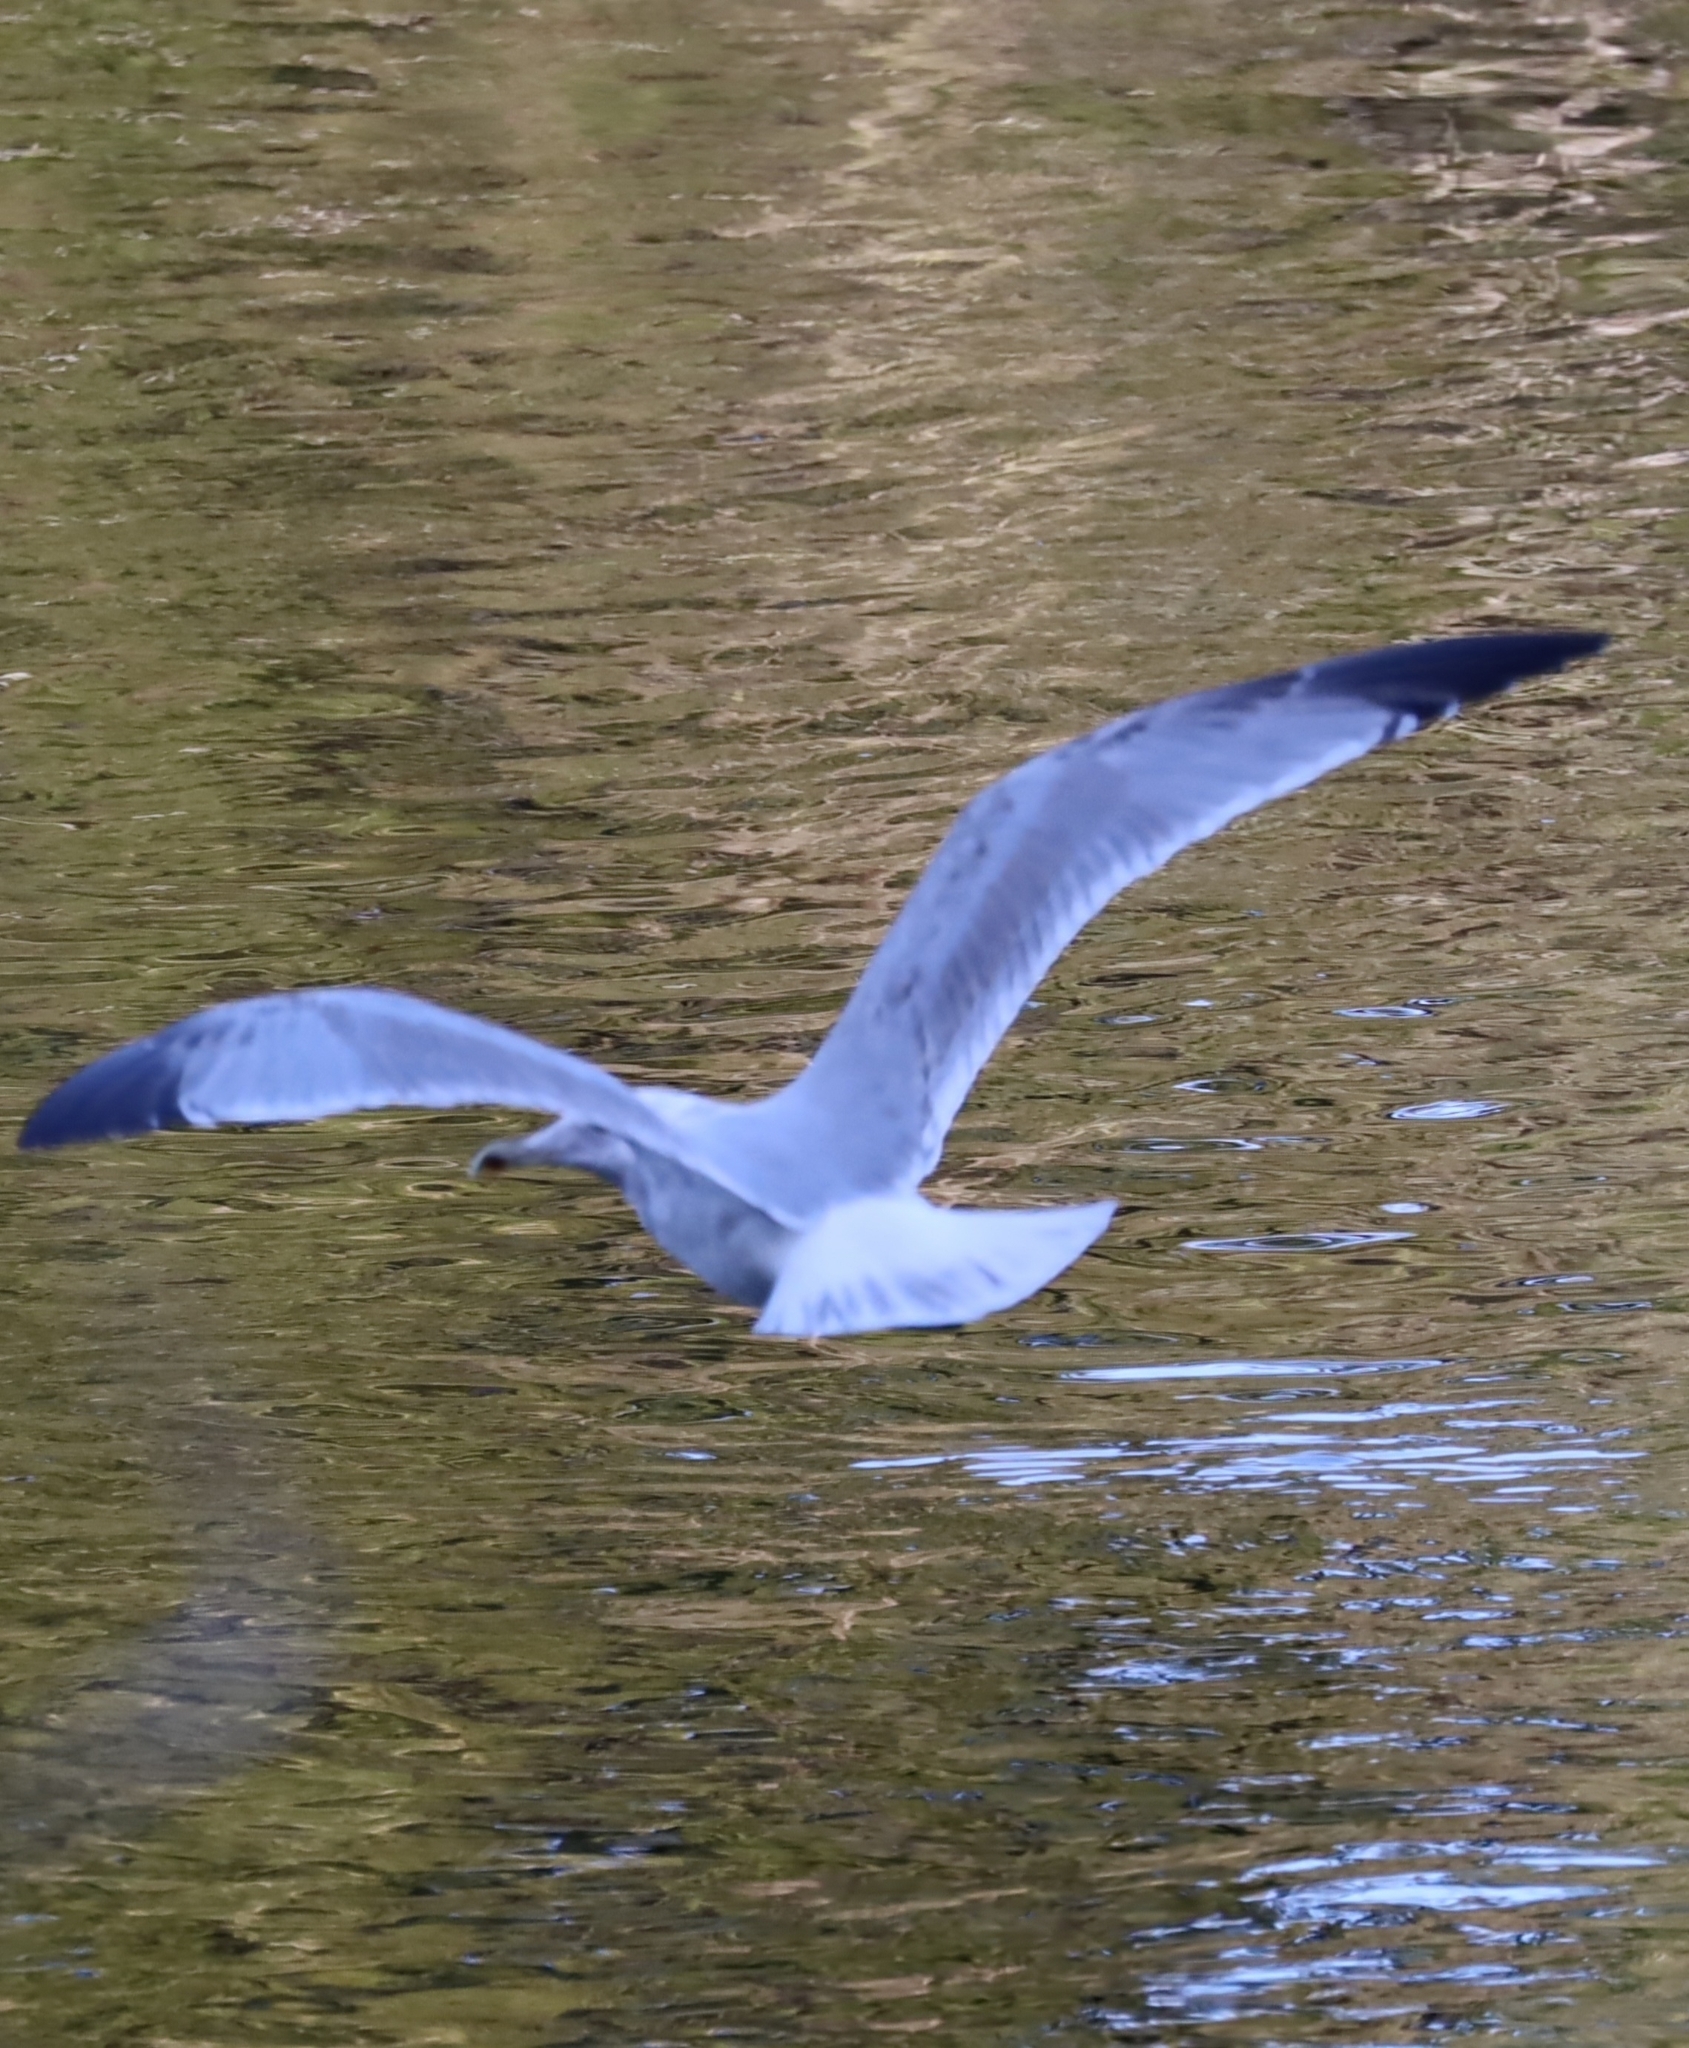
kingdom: Animalia
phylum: Chordata
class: Aves
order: Charadriiformes
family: Laridae
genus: Larus
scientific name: Larus argentatus
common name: Herring gull
